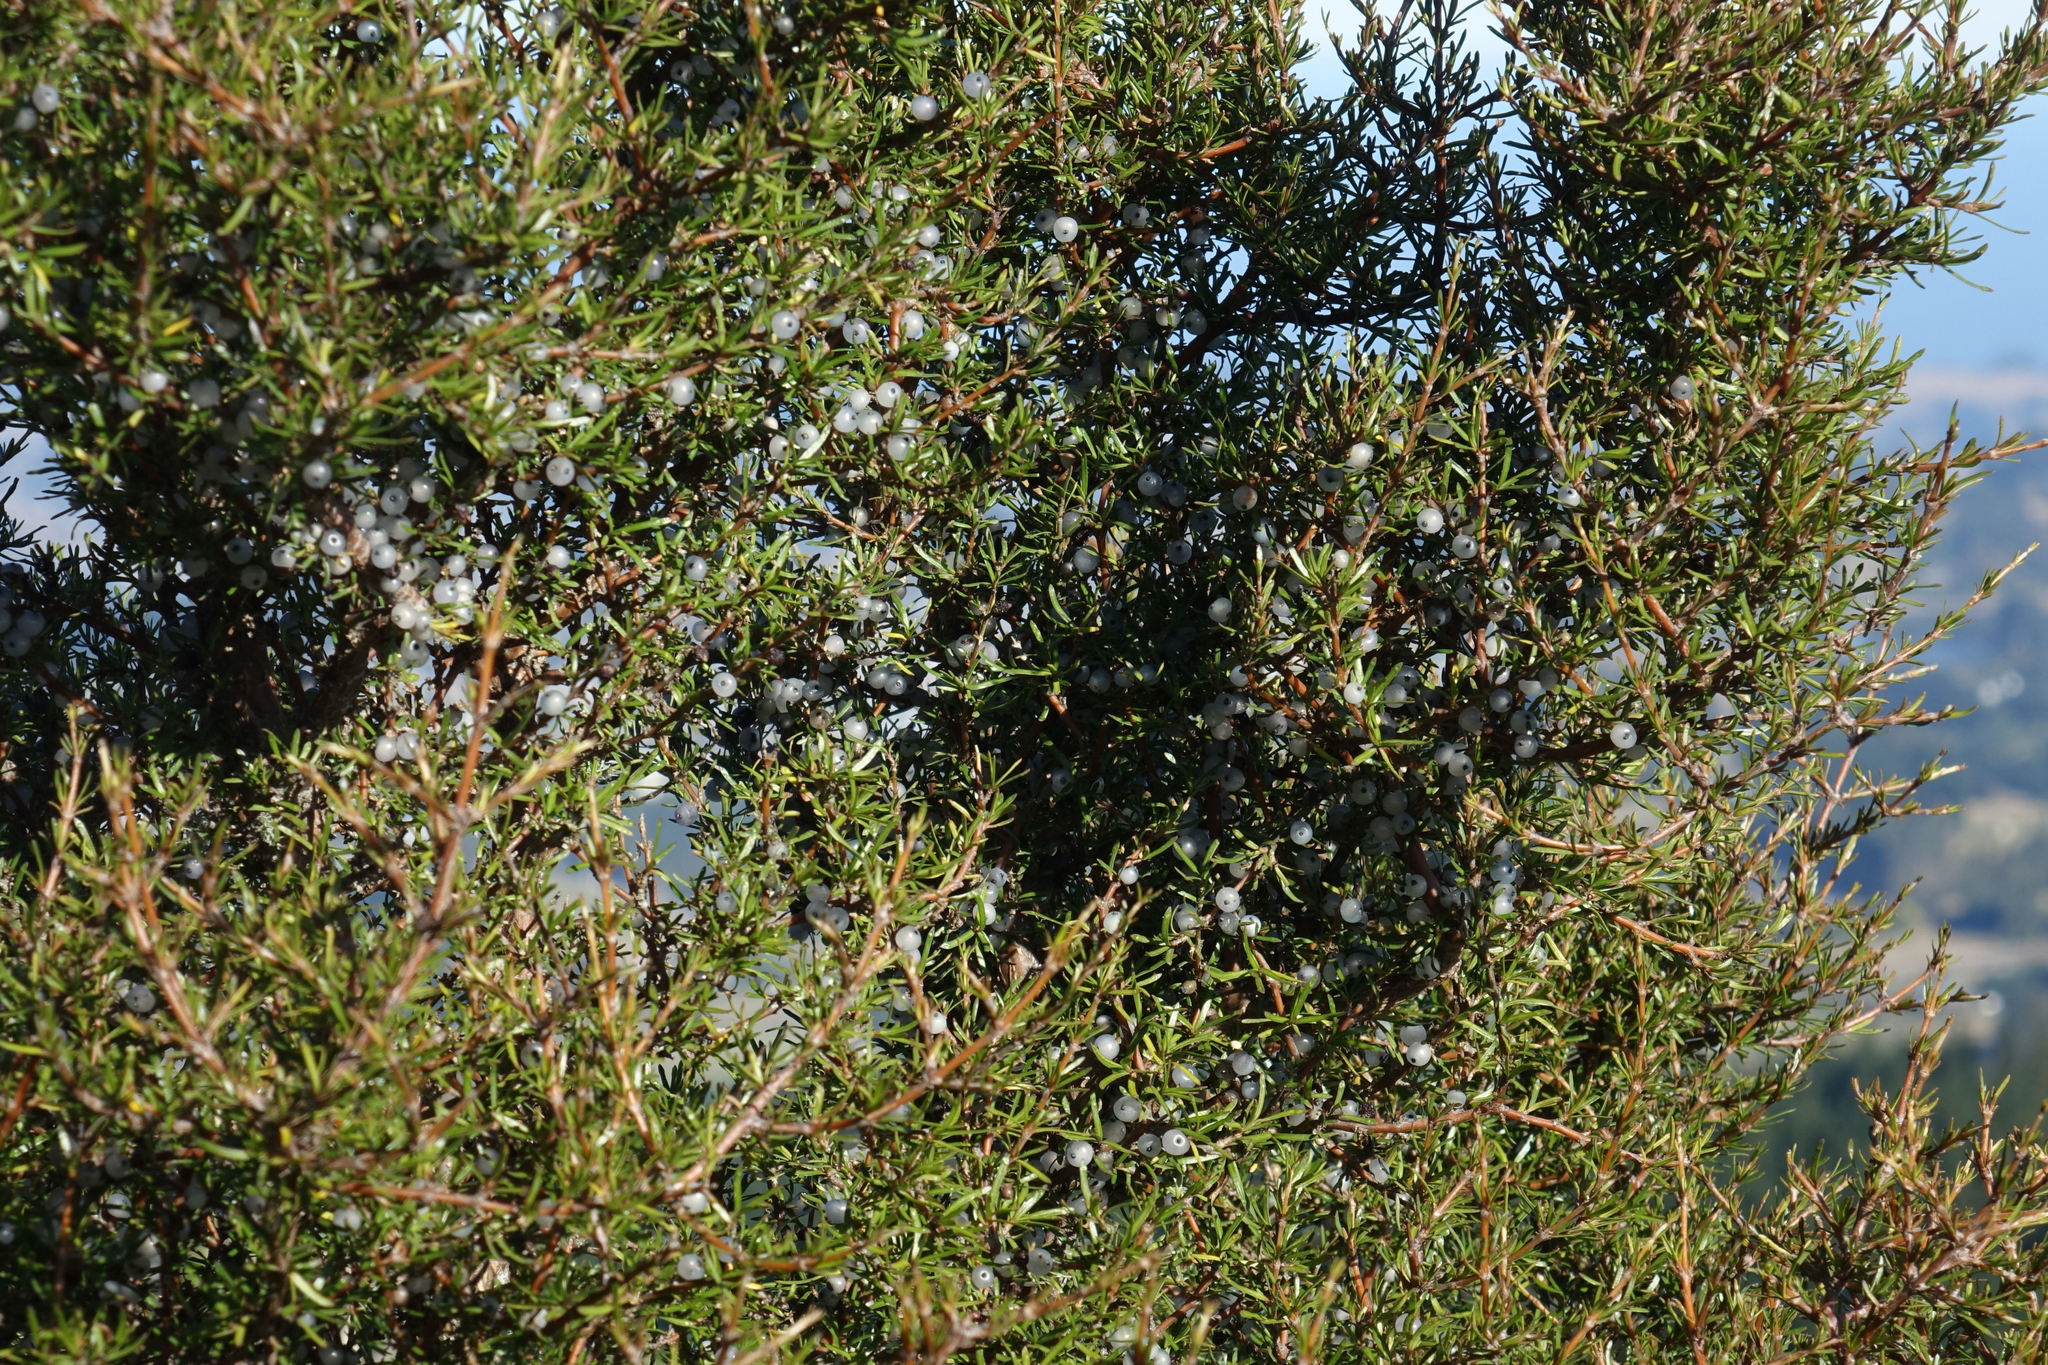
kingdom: Plantae
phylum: Tracheophyta
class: Magnoliopsida
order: Gentianales
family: Rubiaceae
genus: Coprosma
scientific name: Coprosma rugosa
